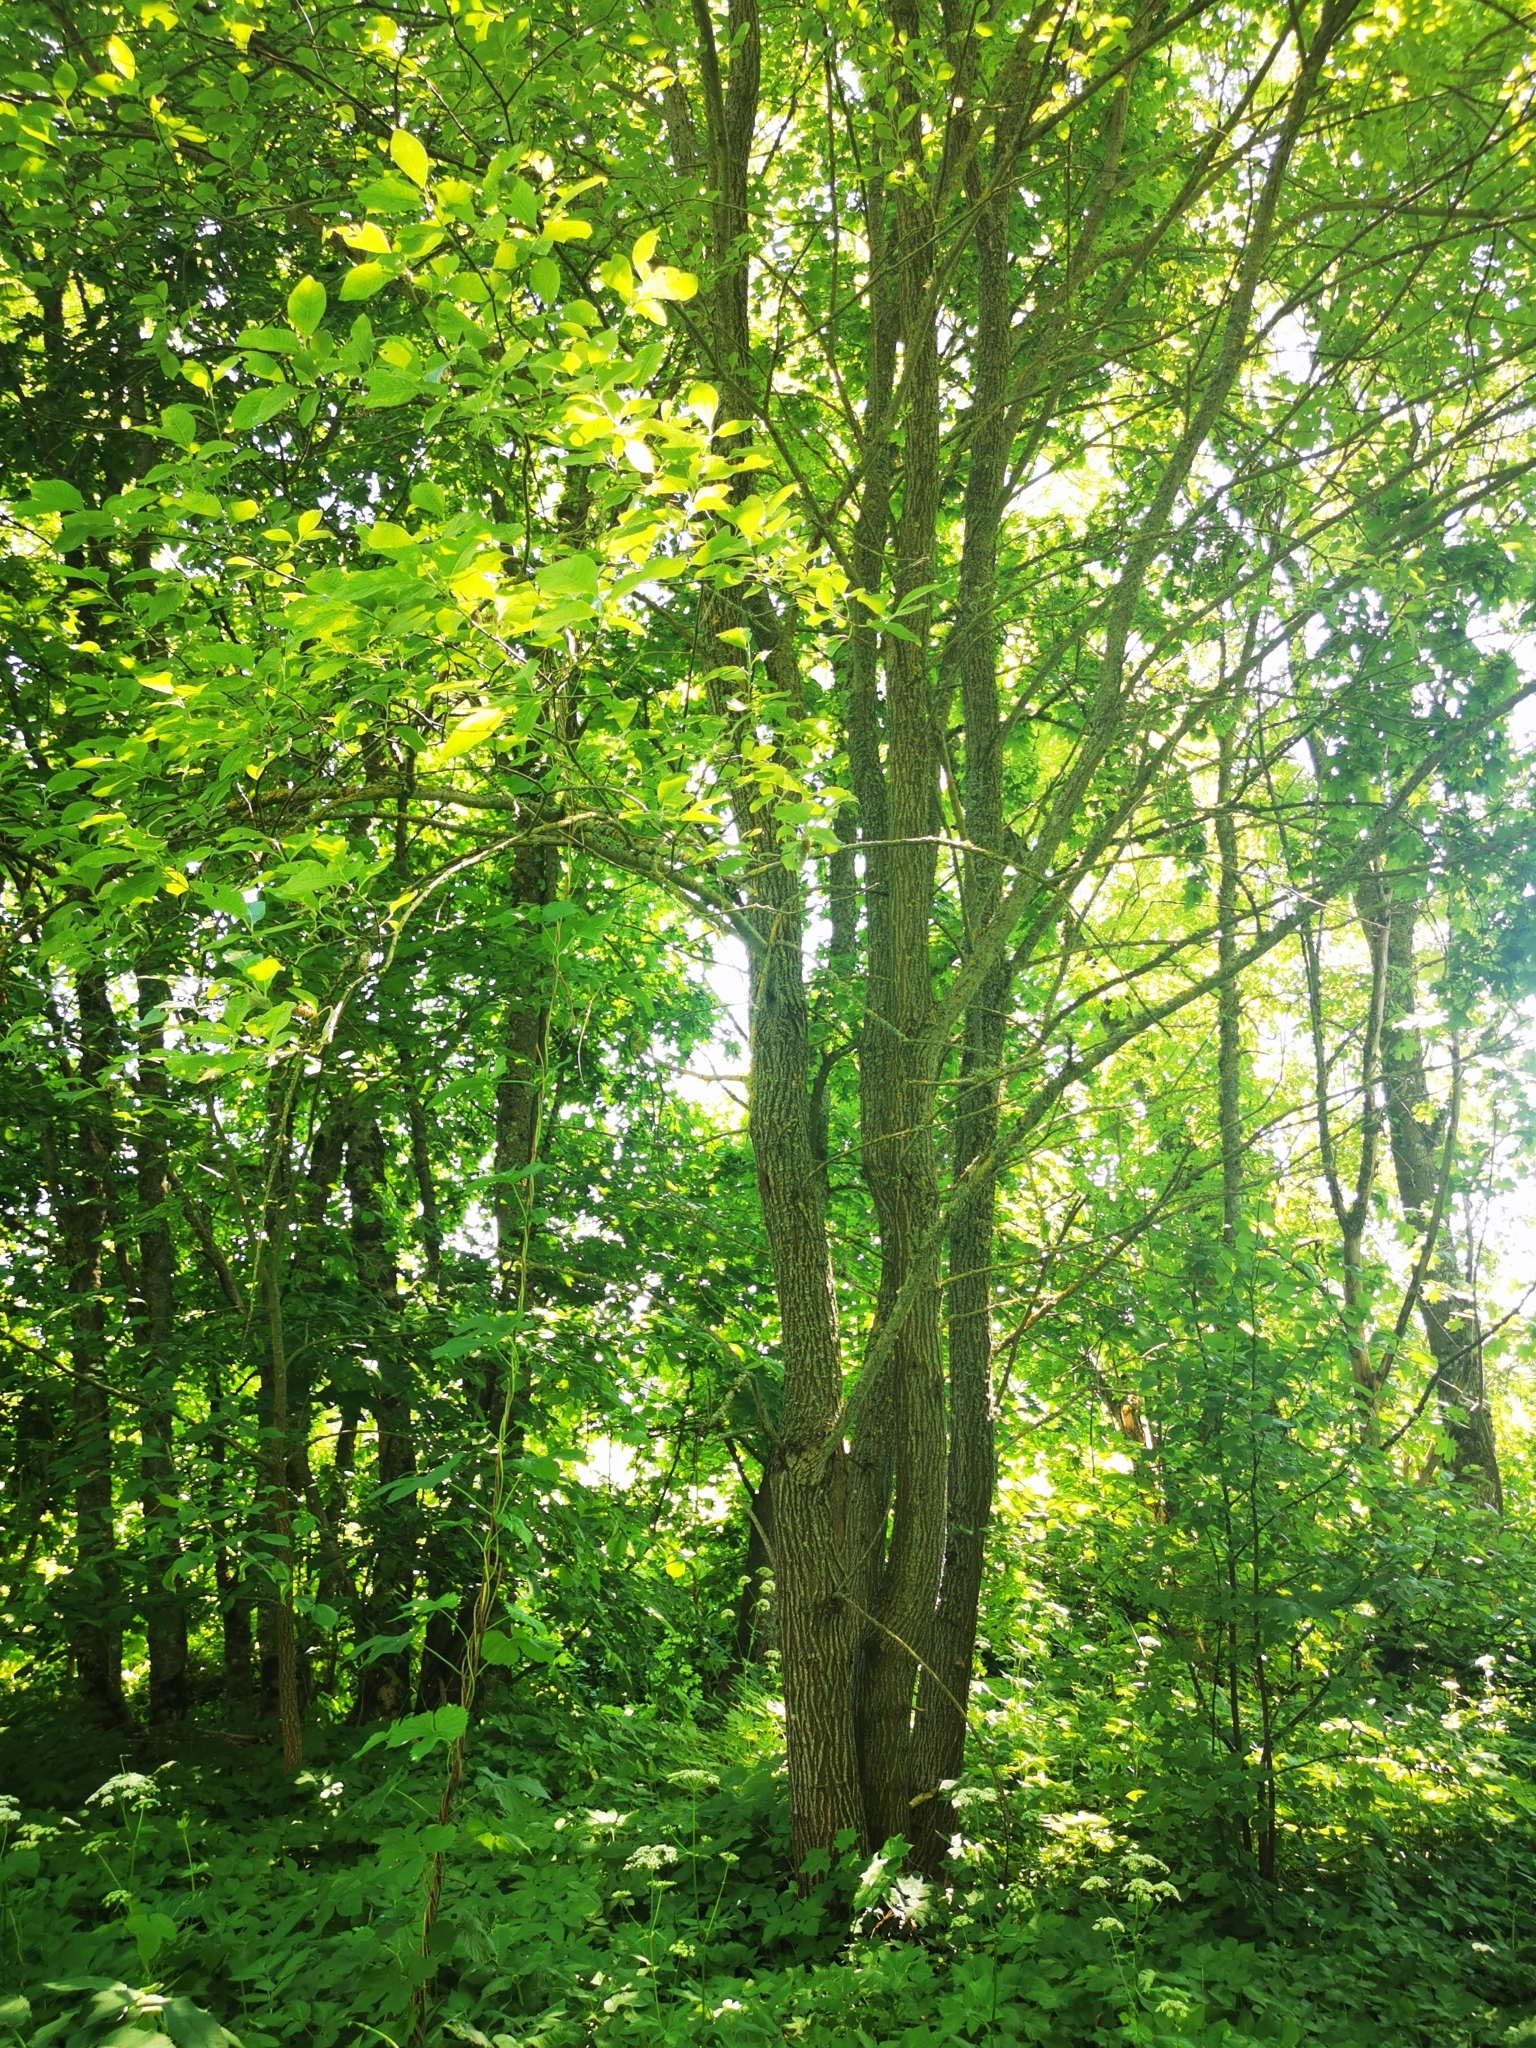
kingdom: Plantae
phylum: Tracheophyta
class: Magnoliopsida
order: Malpighiales
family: Salicaceae
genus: Salix
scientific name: Salix caprea
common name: Goat willow
